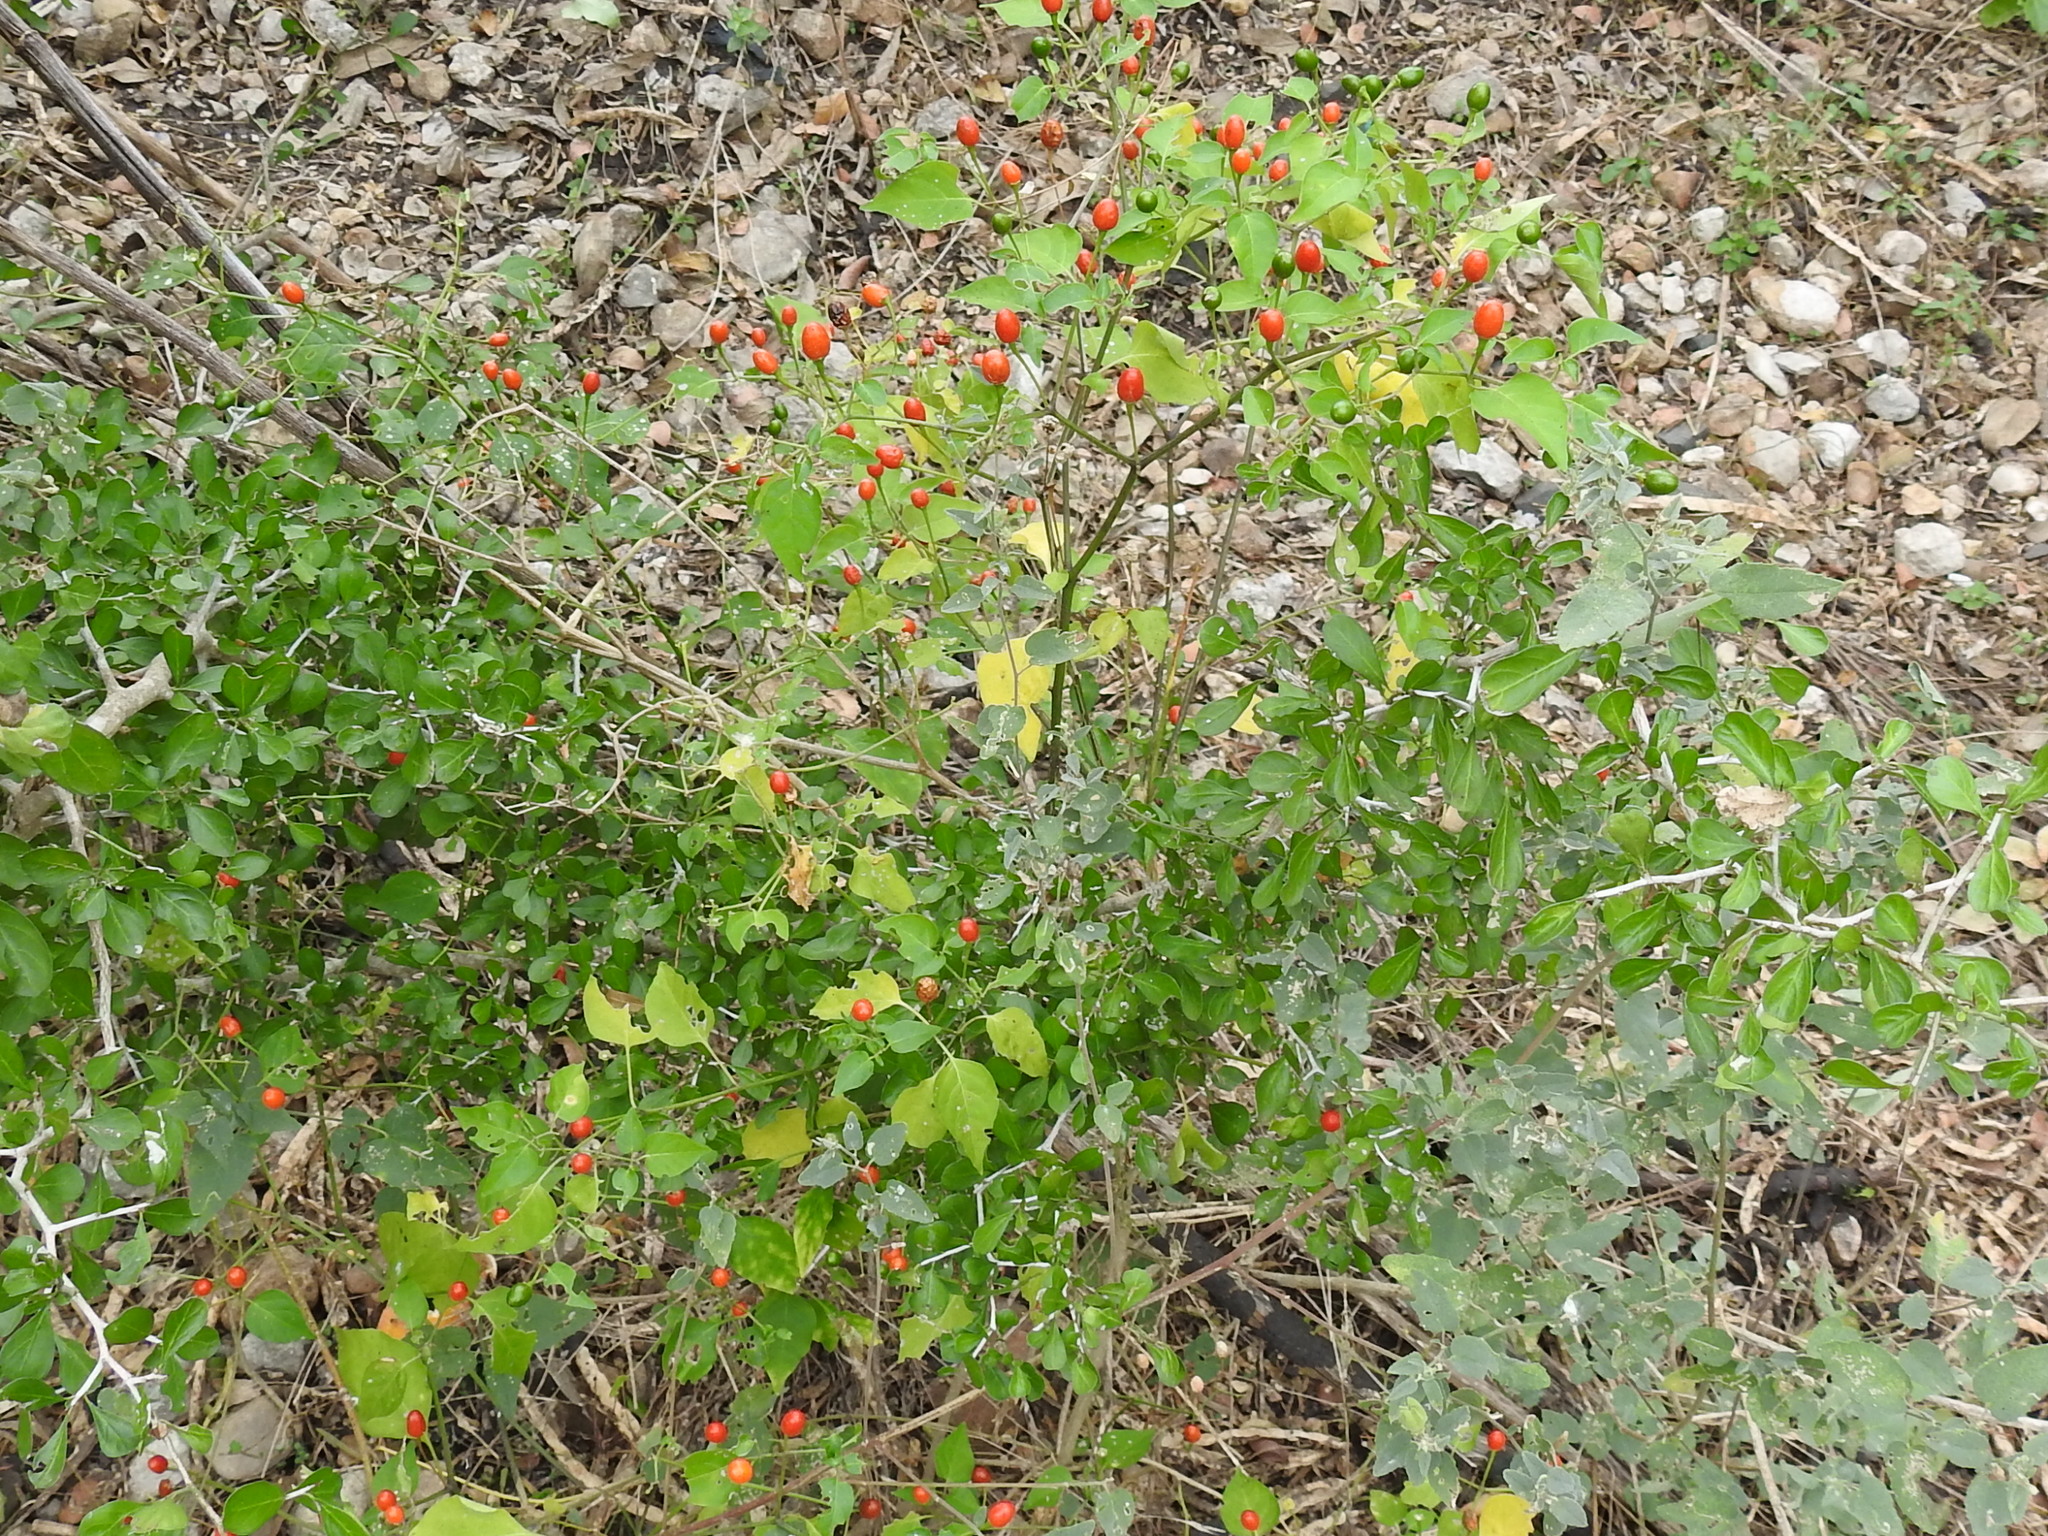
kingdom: Plantae
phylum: Tracheophyta
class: Magnoliopsida
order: Solanales
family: Solanaceae
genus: Capsicum
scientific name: Capsicum annuum
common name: Sweet pepper
